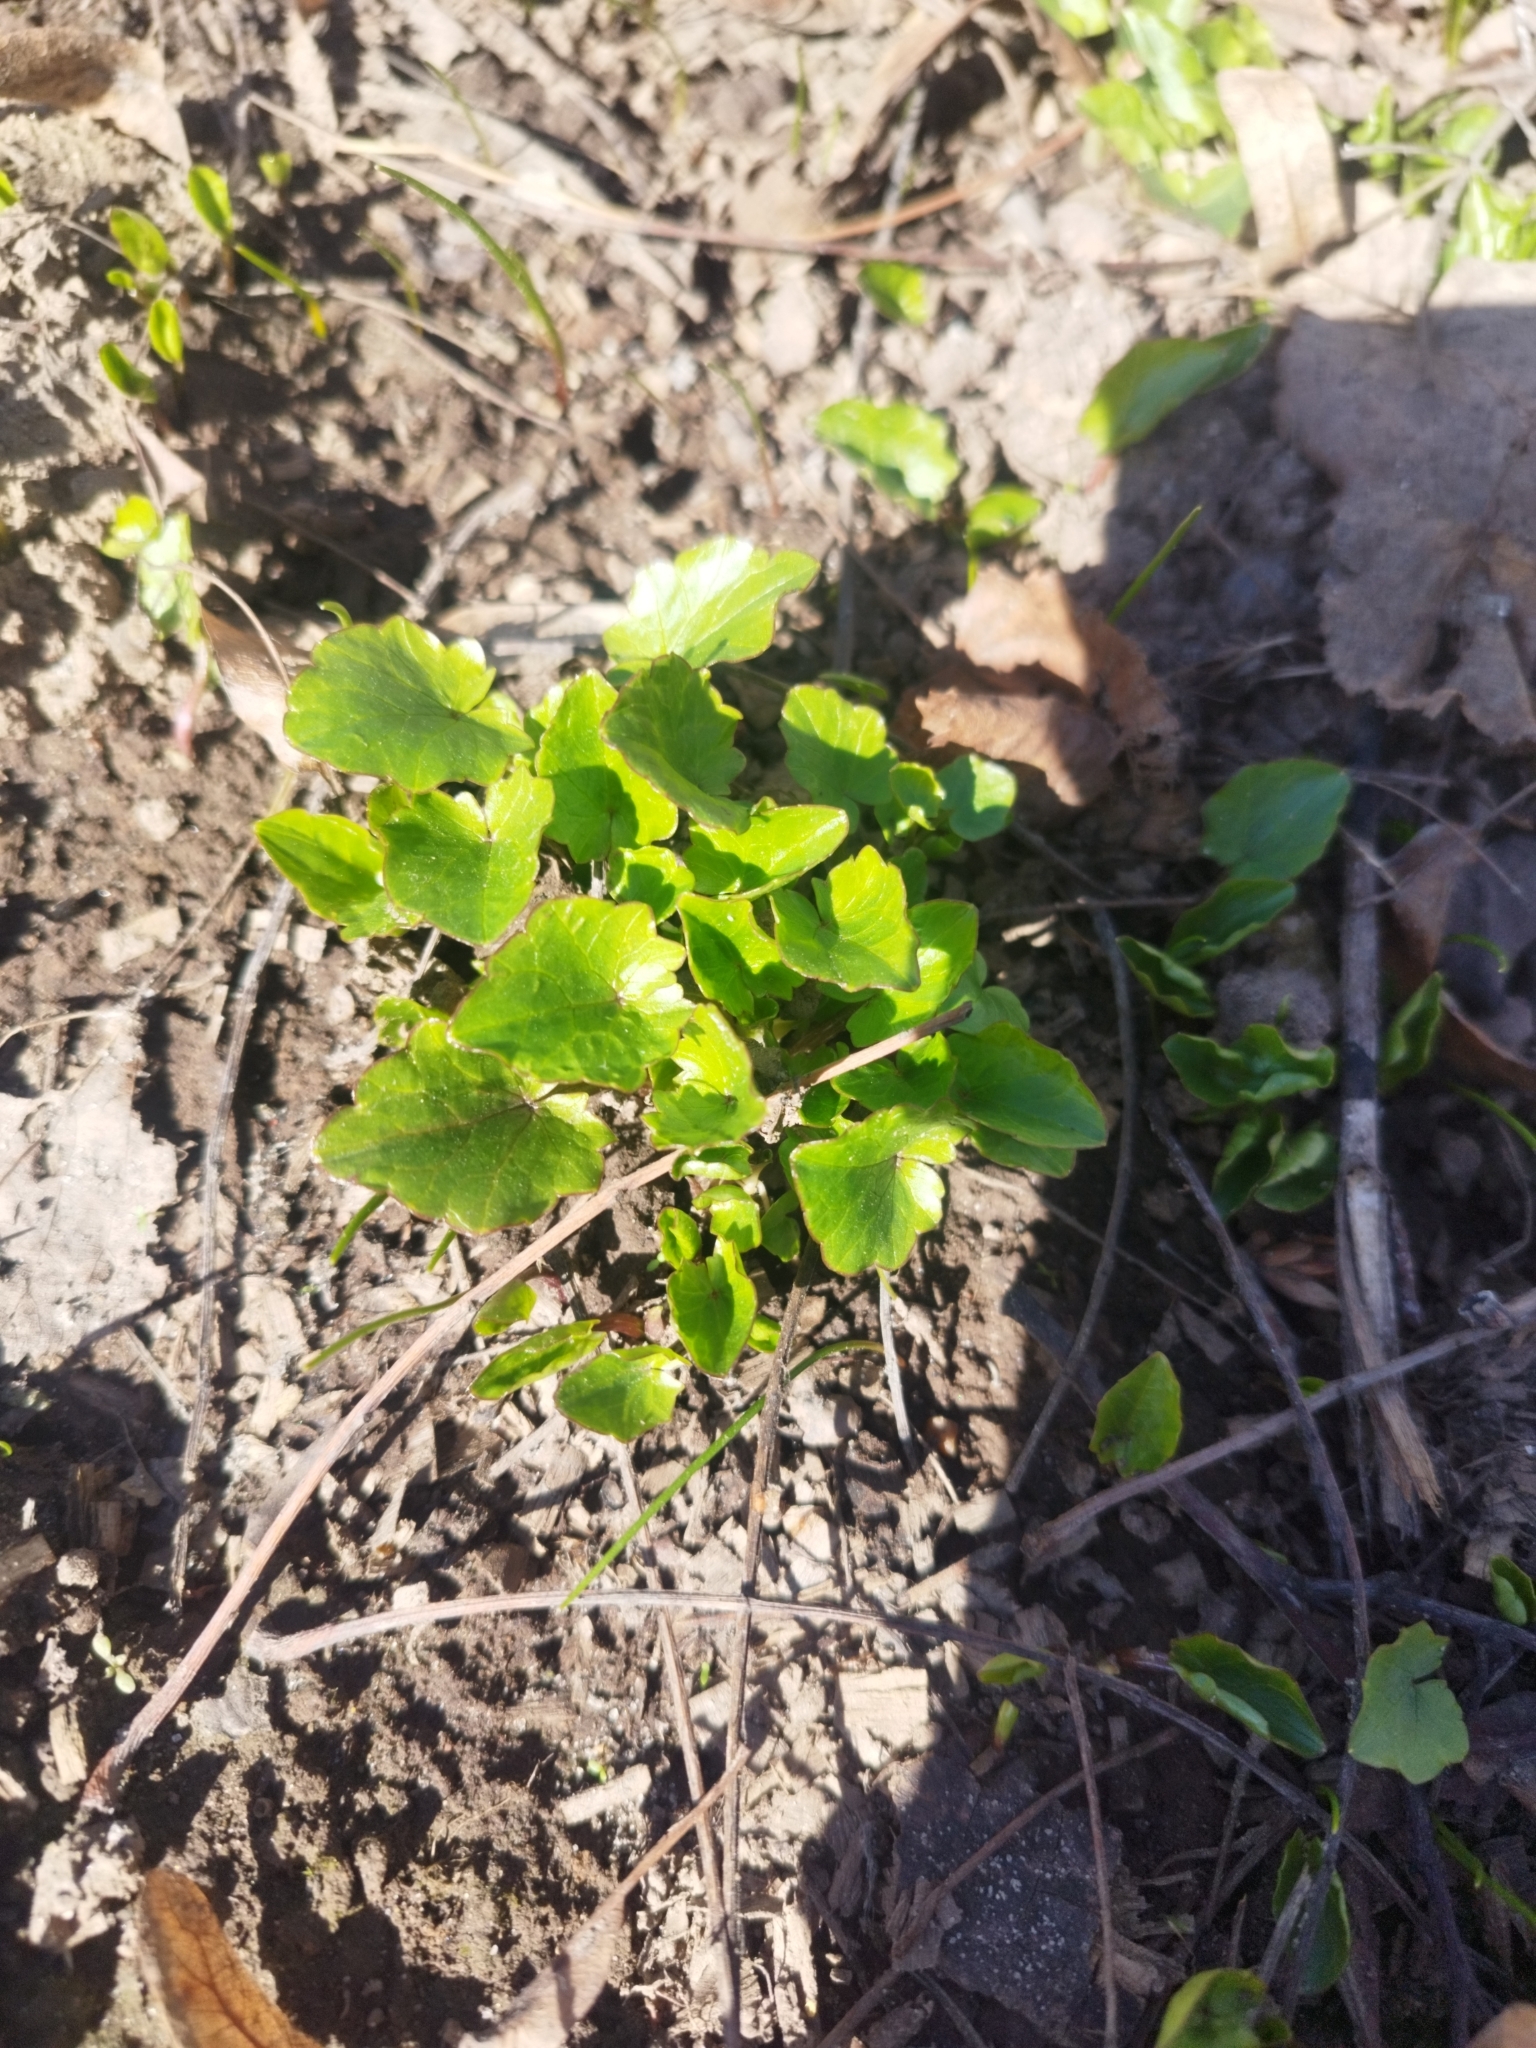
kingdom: Plantae
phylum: Tracheophyta
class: Magnoliopsida
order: Ranunculales
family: Ranunculaceae
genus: Ficaria
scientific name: Ficaria verna
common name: Lesser celandine
